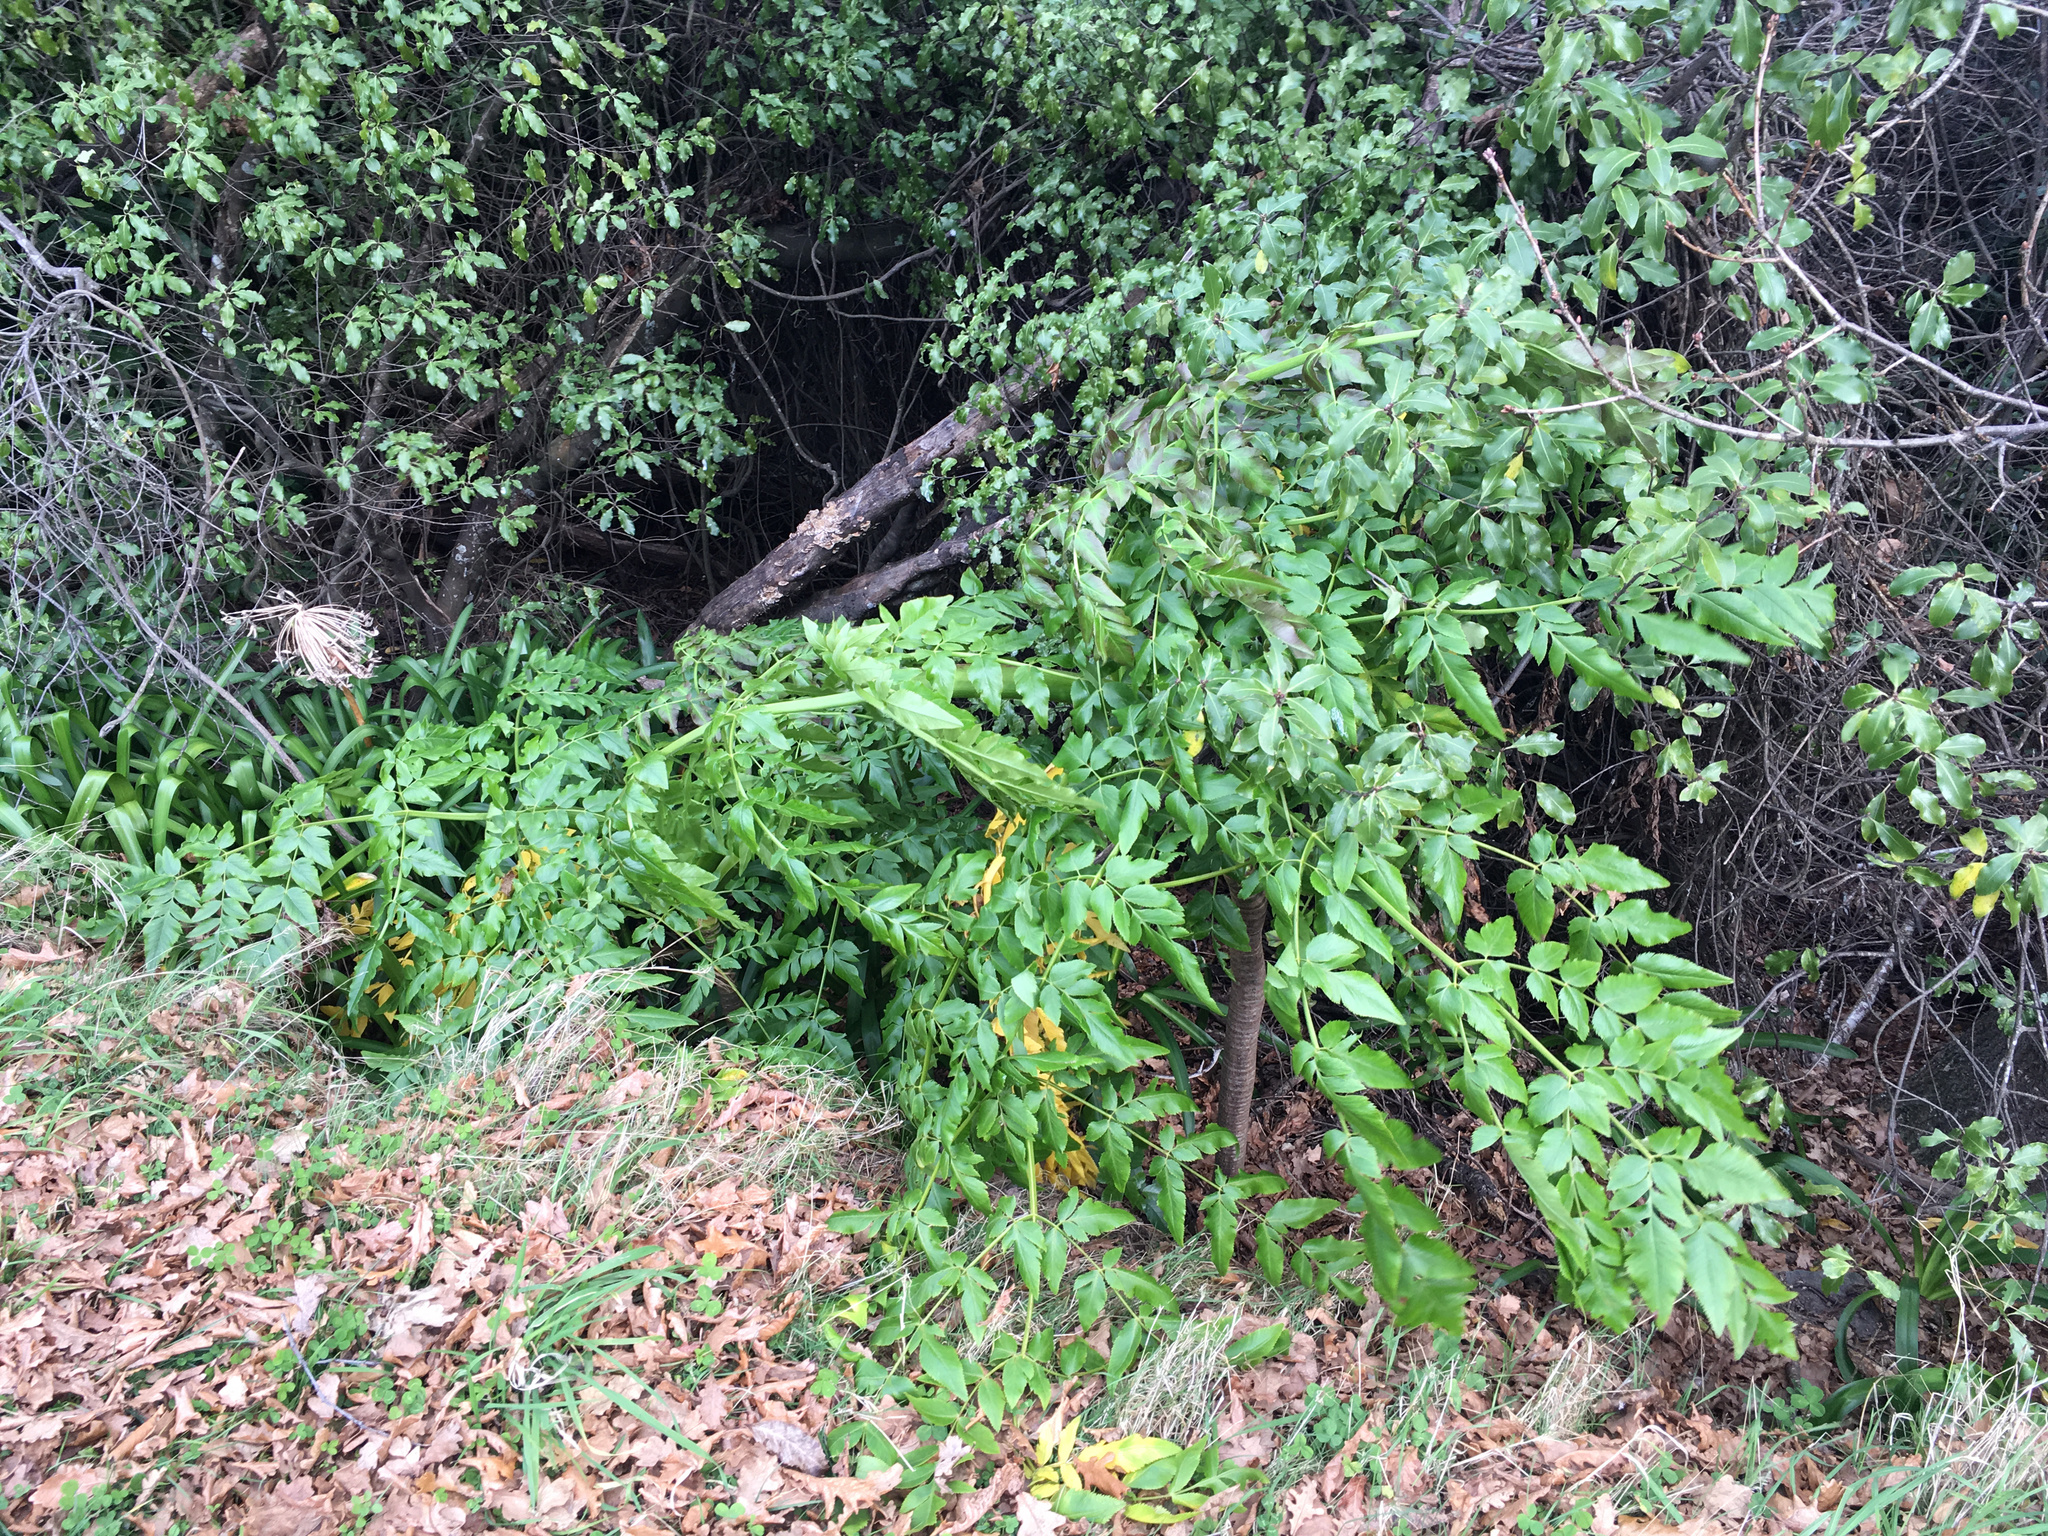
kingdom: Plantae
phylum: Tracheophyta
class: Magnoliopsida
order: Apiales
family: Apiaceae
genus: Daucus
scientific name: Daucus decipiens
